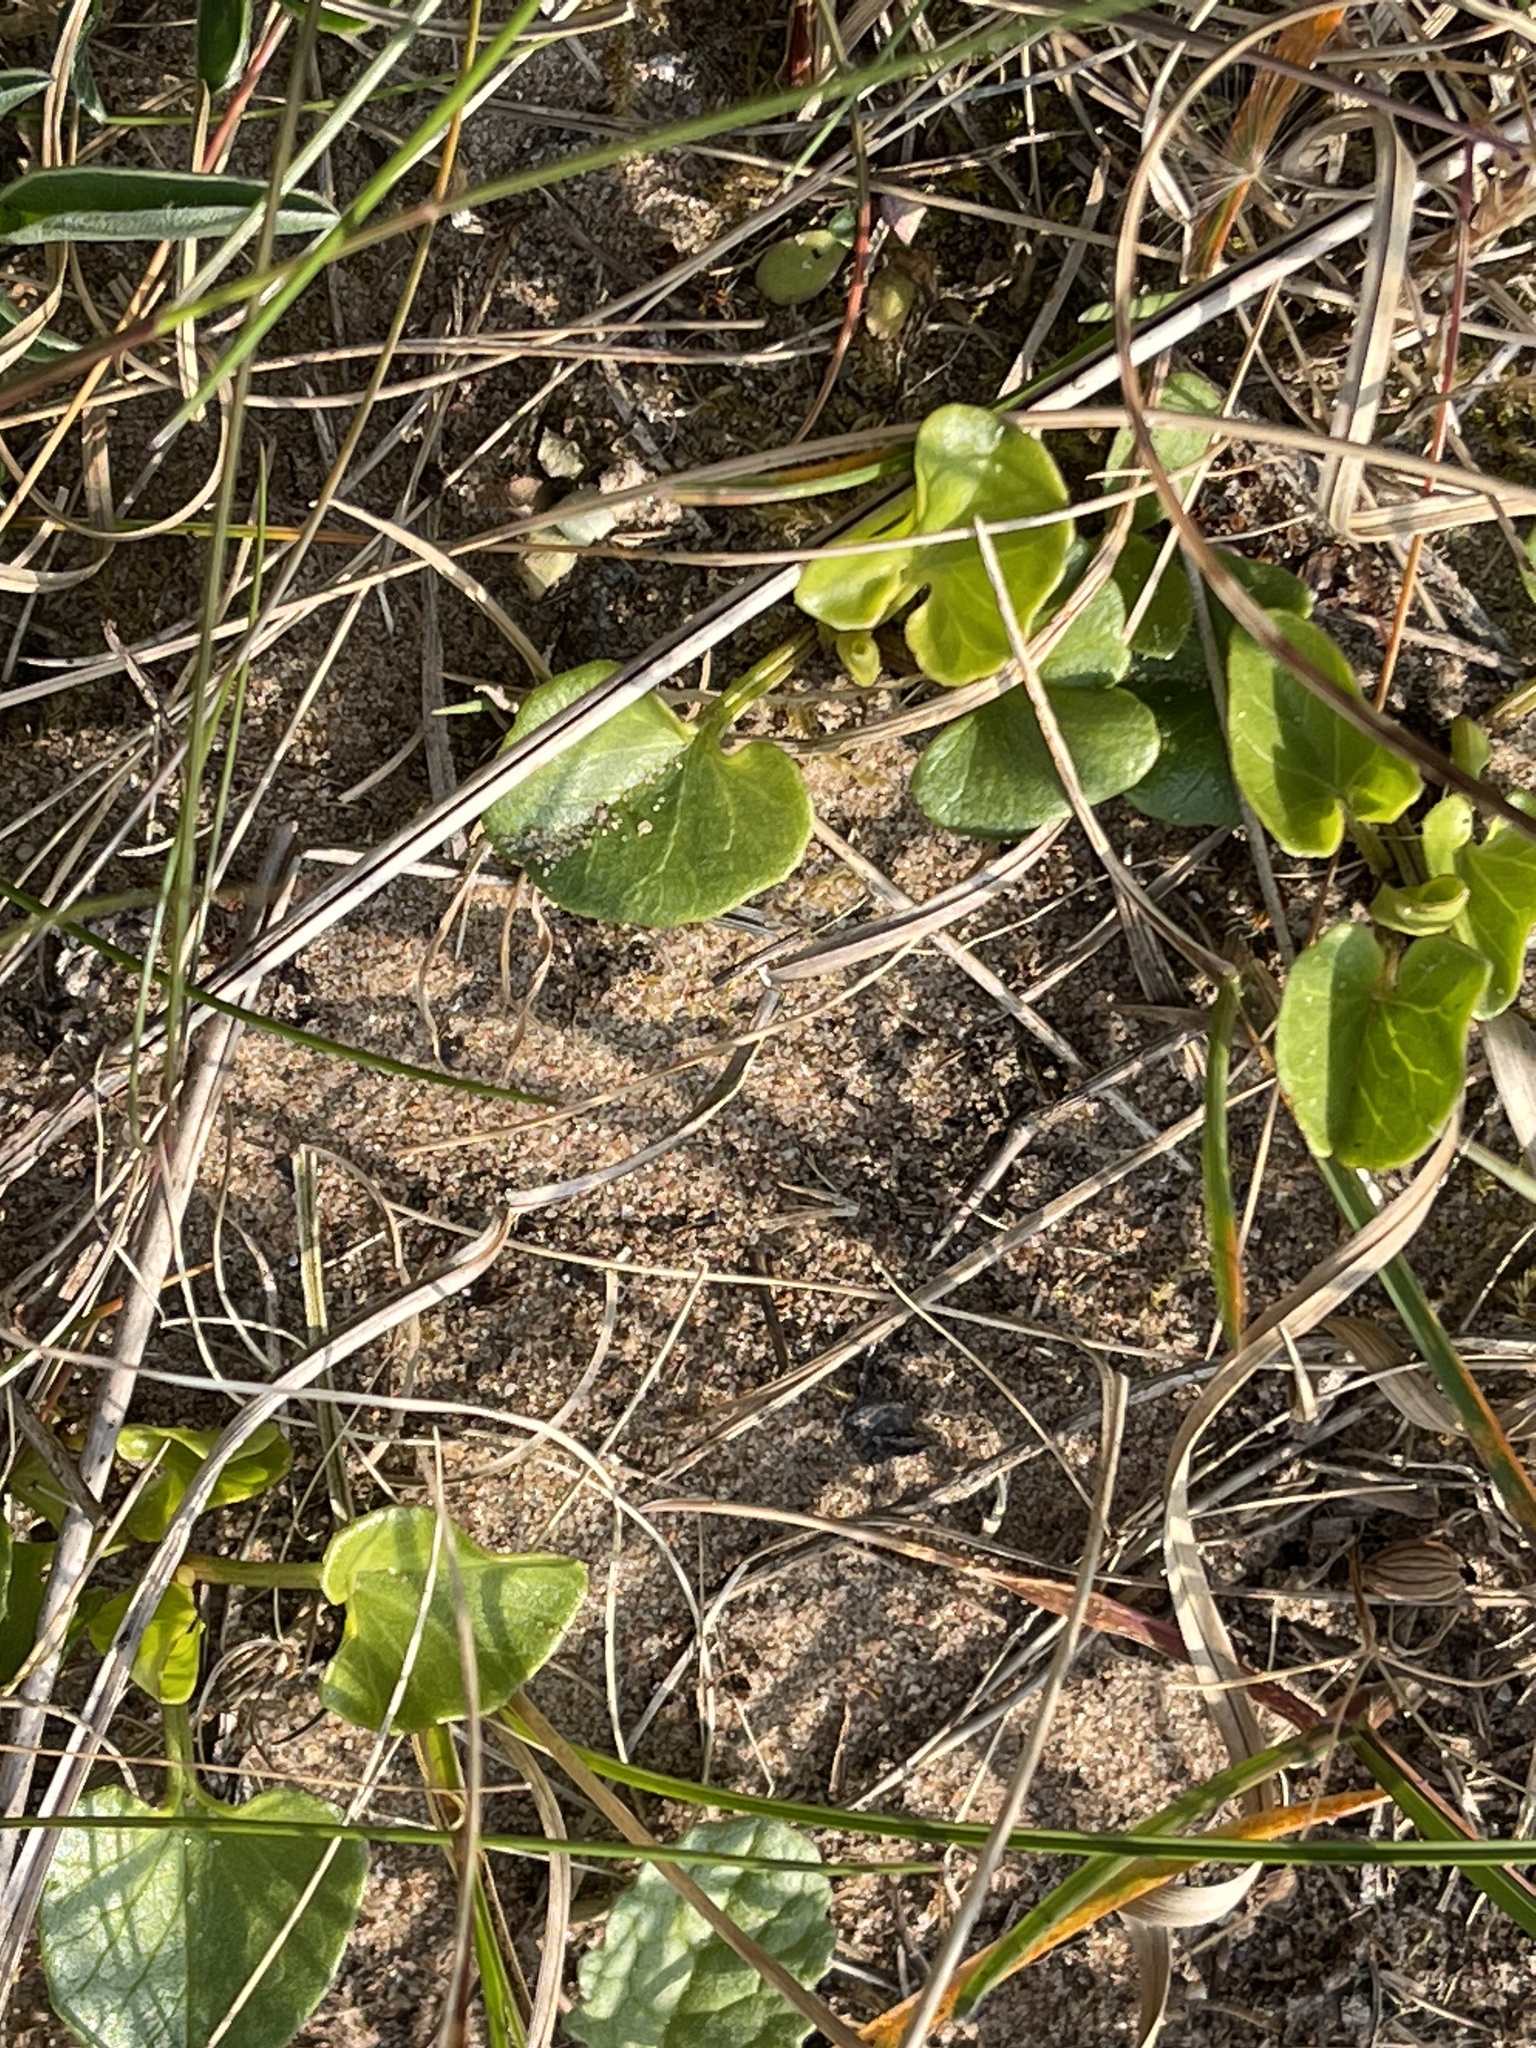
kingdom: Plantae
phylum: Tracheophyta
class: Magnoliopsida
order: Solanales
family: Convolvulaceae
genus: Calystegia
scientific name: Calystegia soldanella
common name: Sea bindweed
